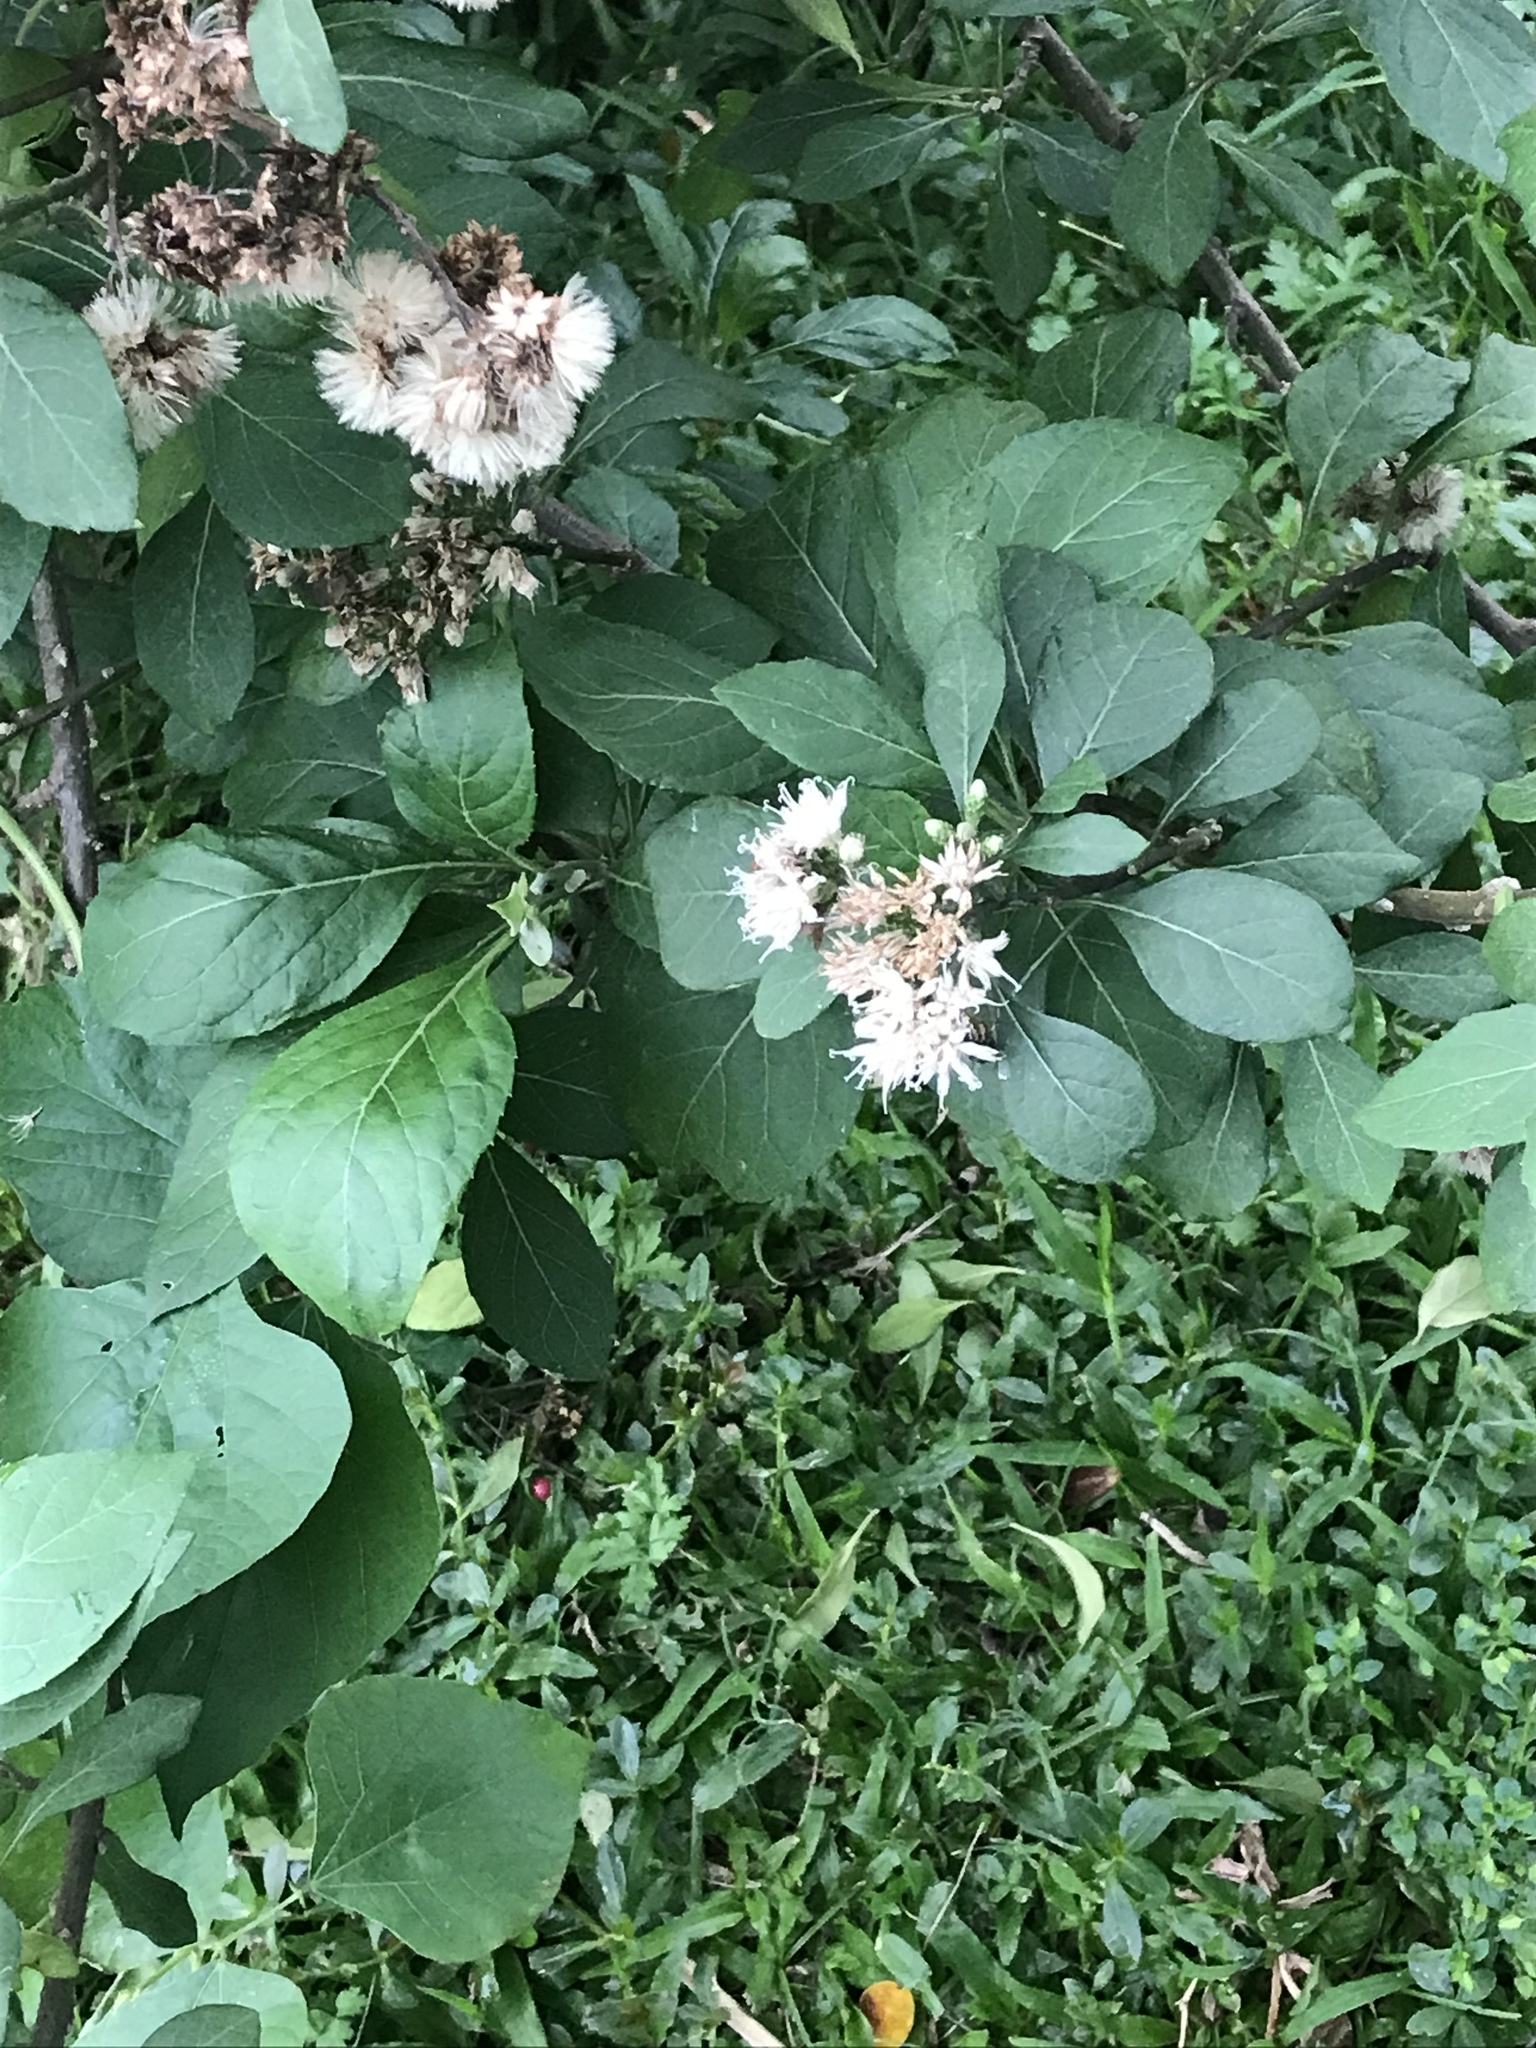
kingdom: Plantae
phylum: Tracheophyta
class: Magnoliopsida
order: Asterales
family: Asteraceae
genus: Gymnanthemum
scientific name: Gymnanthemum amygdalinum
